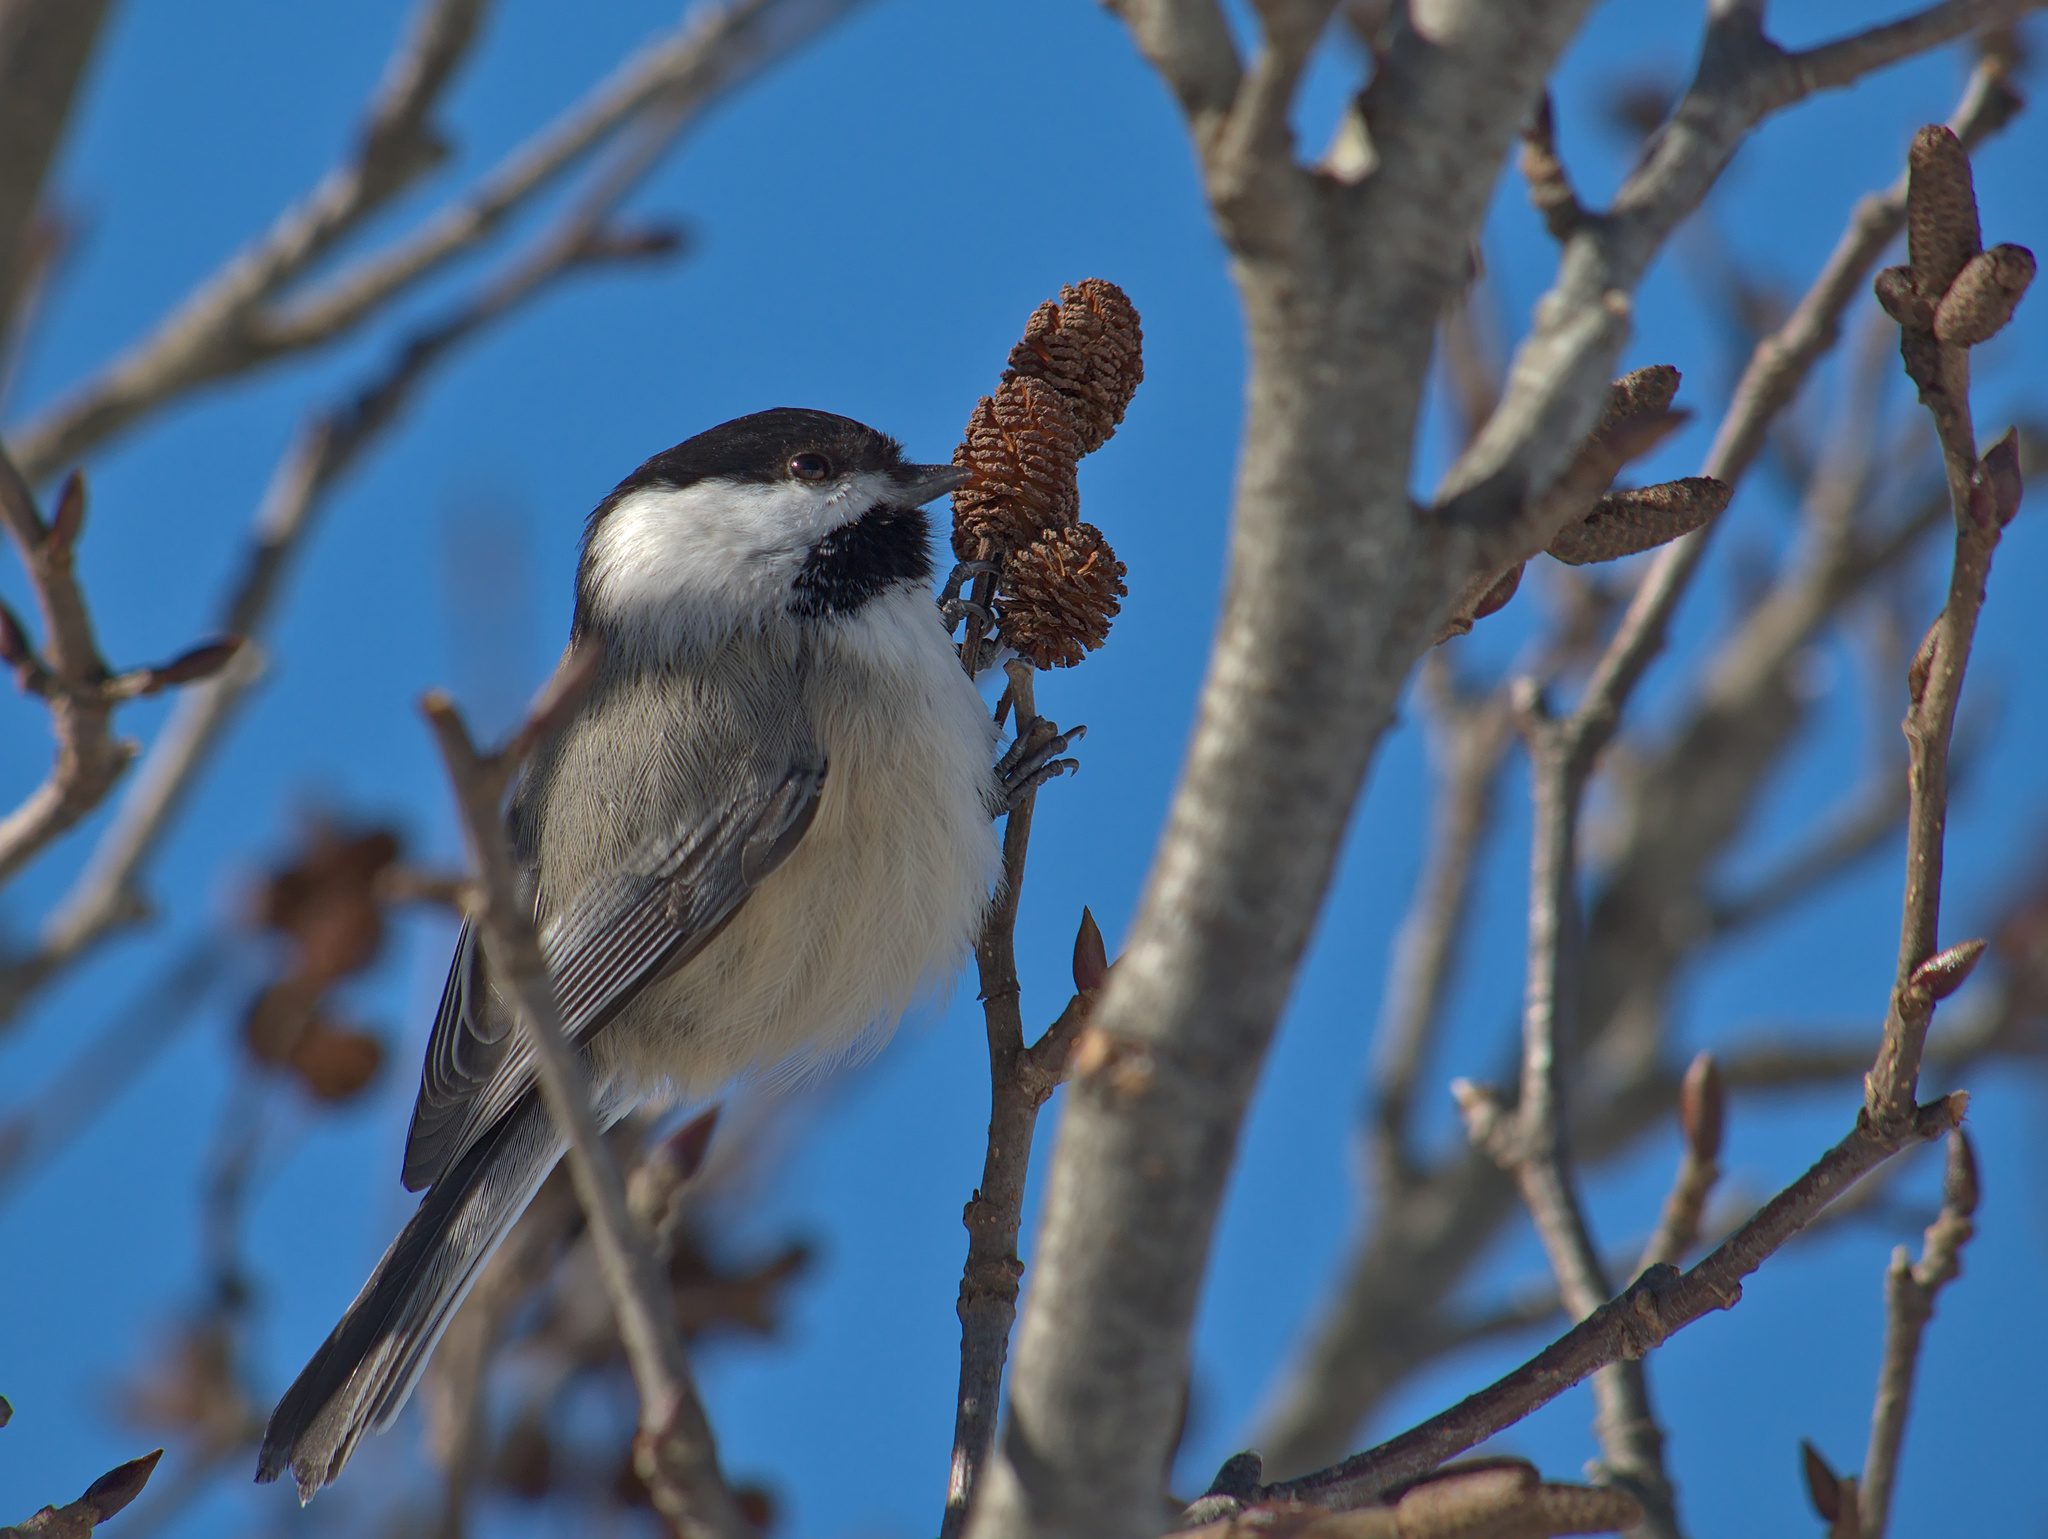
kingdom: Animalia
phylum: Chordata
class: Aves
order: Passeriformes
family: Paridae
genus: Poecile
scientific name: Poecile atricapillus
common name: Black-capped chickadee
